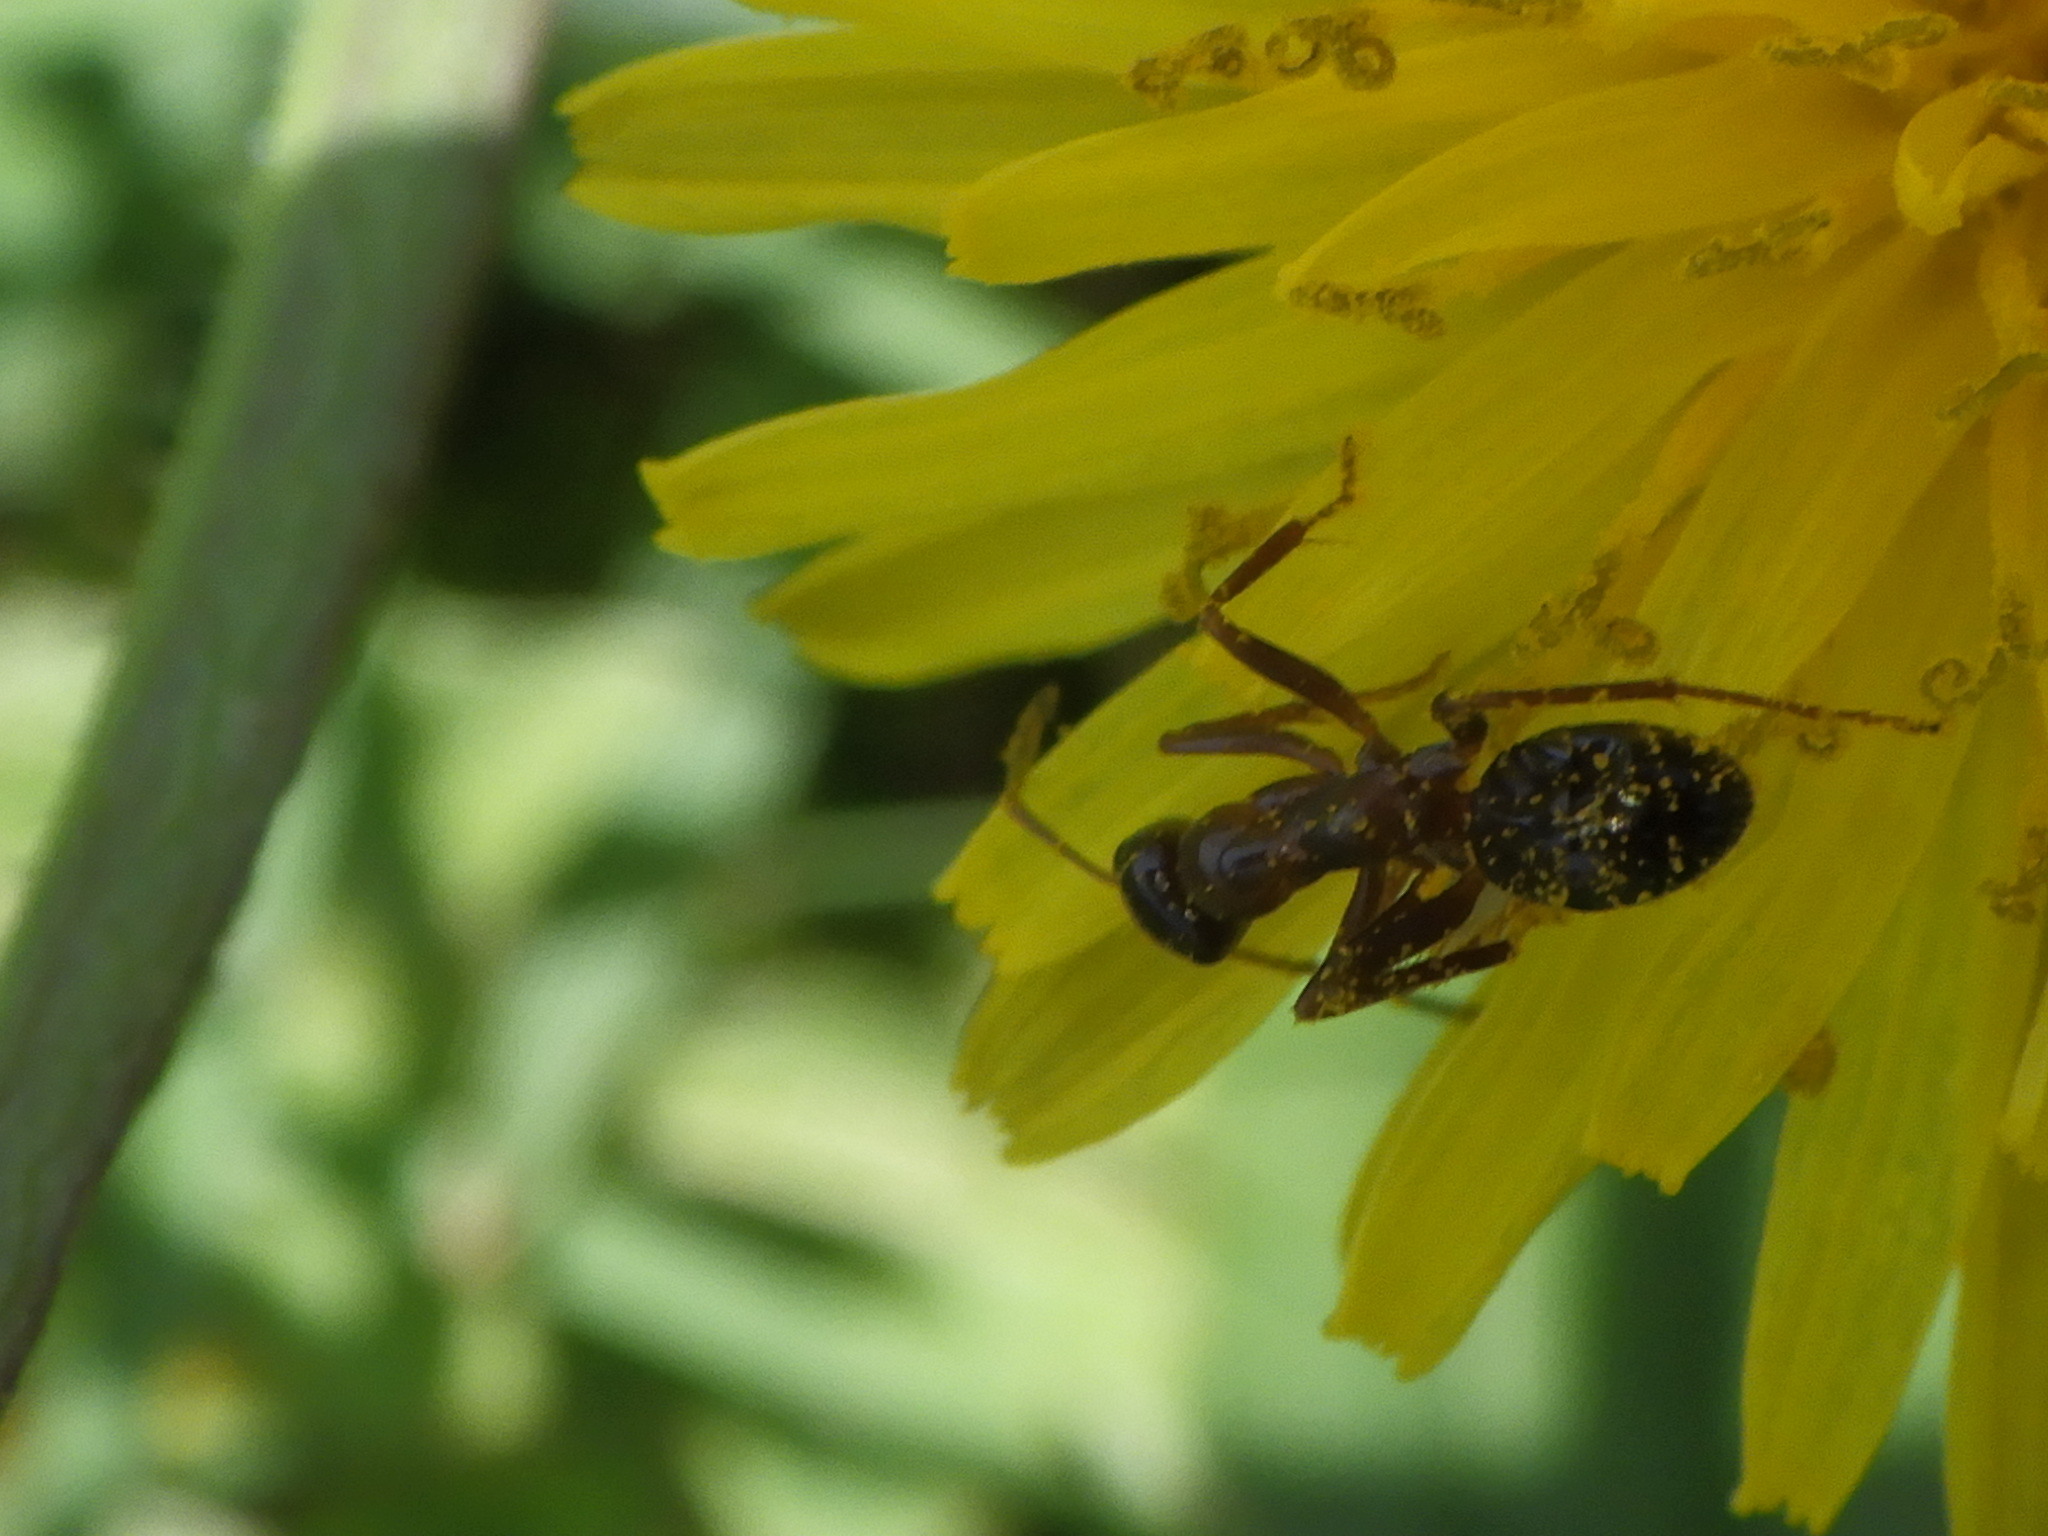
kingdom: Animalia
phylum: Arthropoda
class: Insecta
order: Hymenoptera
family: Formicidae
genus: Formica
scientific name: Formica
